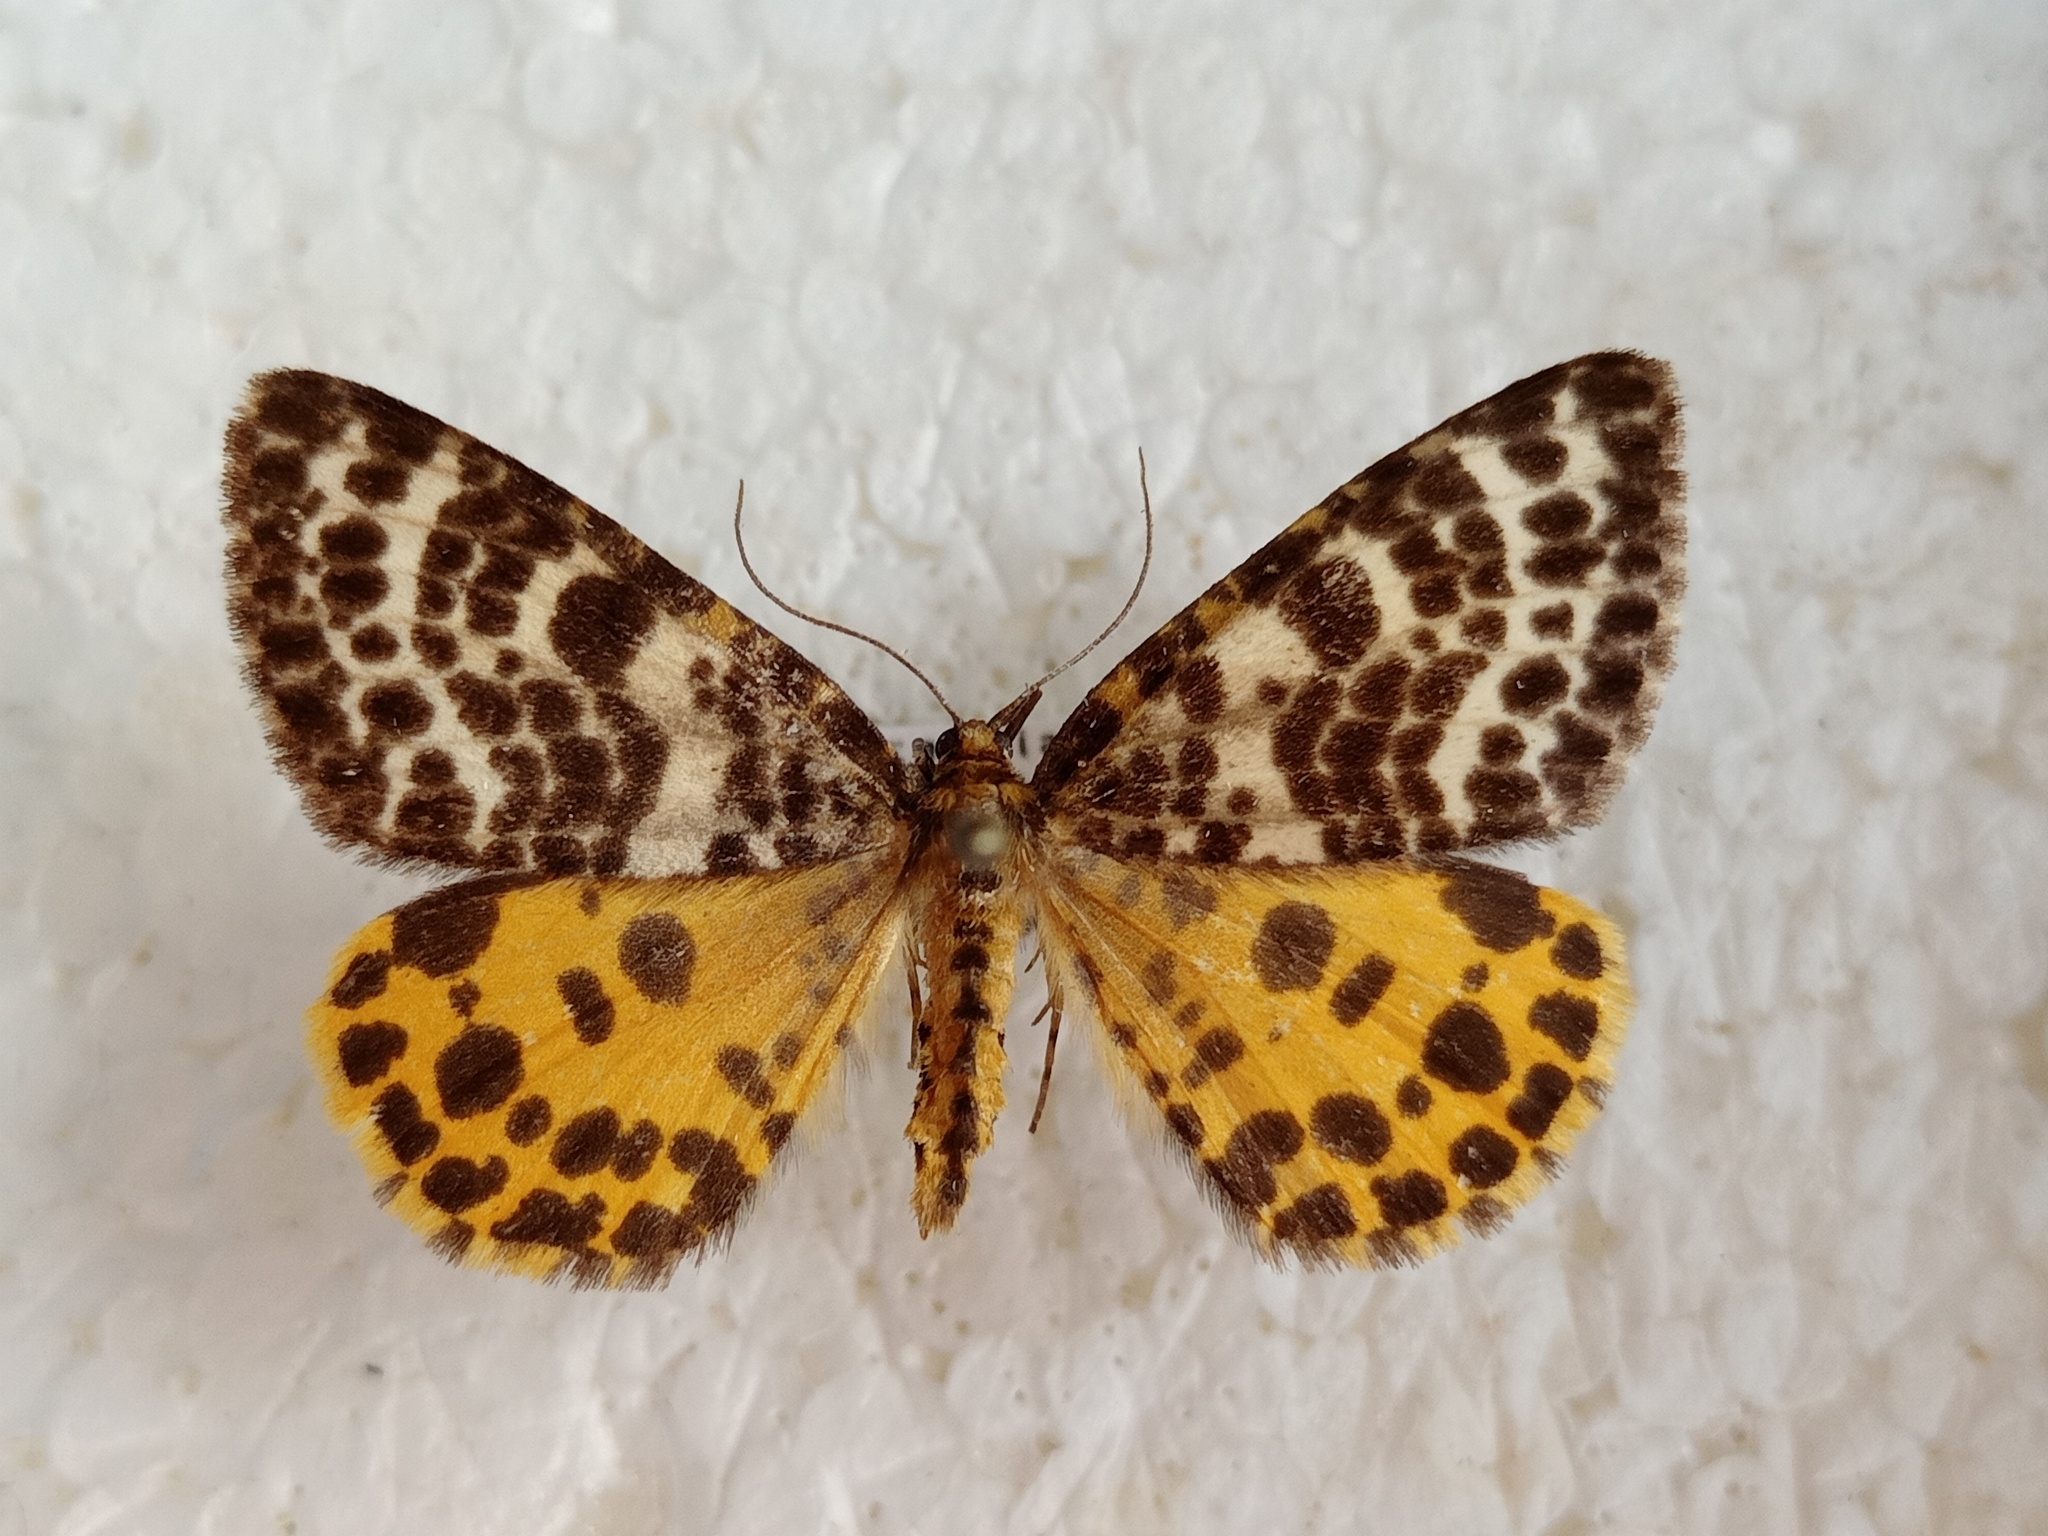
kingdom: Animalia
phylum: Arthropoda
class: Insecta
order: Lepidoptera
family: Geometridae
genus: Arichanna
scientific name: Arichanna melanaria
